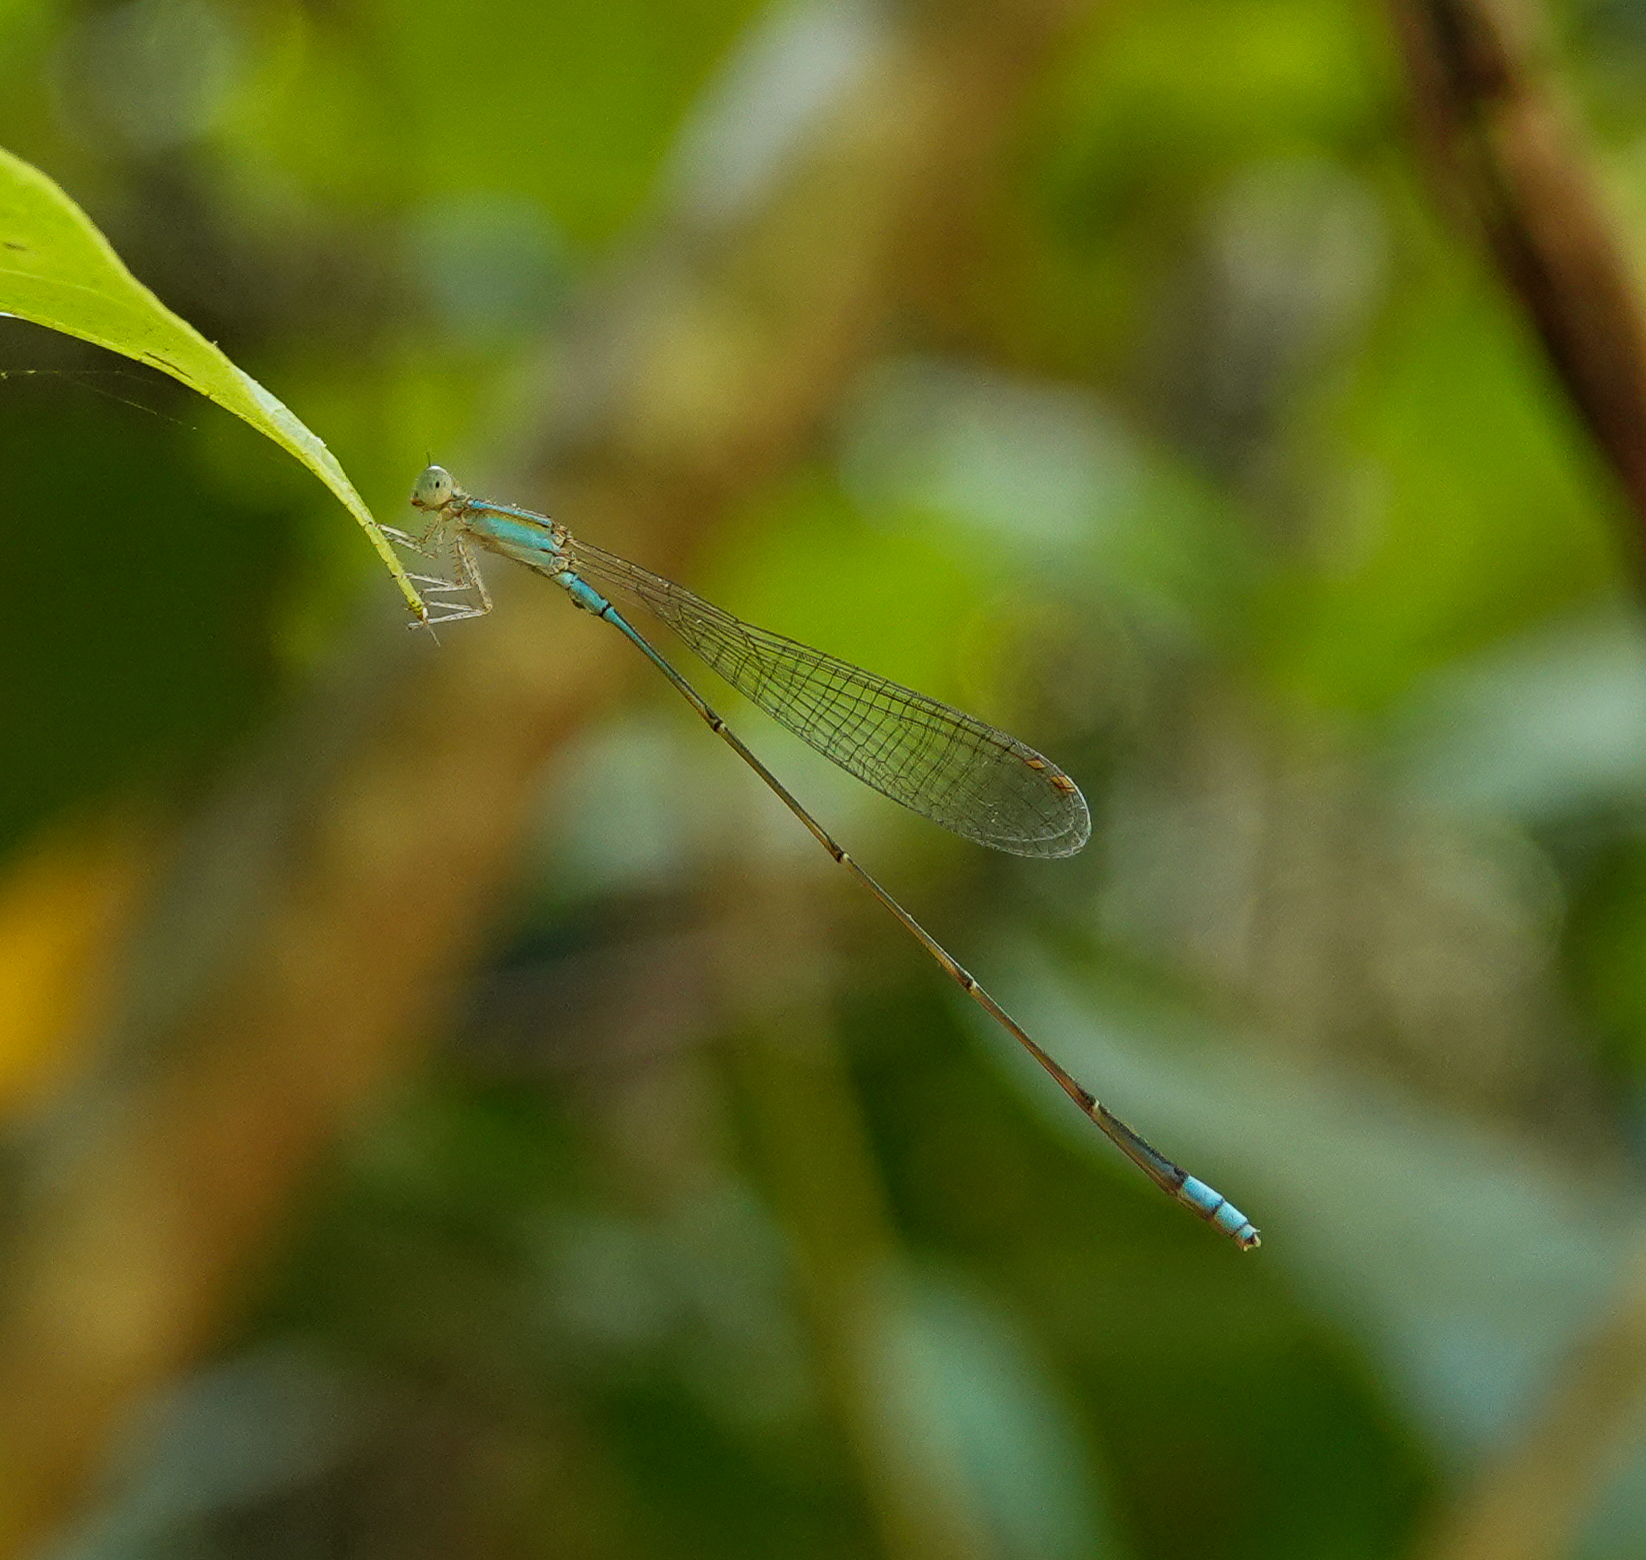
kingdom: Animalia
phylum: Arthropoda
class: Insecta
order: Odonata
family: Coenagrionidae
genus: Aciagrion
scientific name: Aciagrion pallidum
